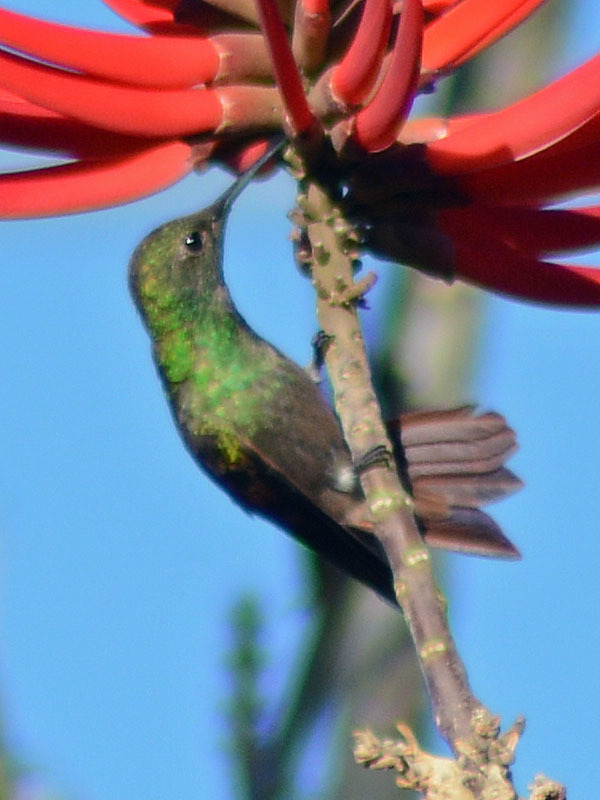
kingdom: Animalia
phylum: Chordata
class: Aves
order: Apodiformes
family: Trochilidae
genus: Saucerottia
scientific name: Saucerottia beryllina
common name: Berylline hummingbird
